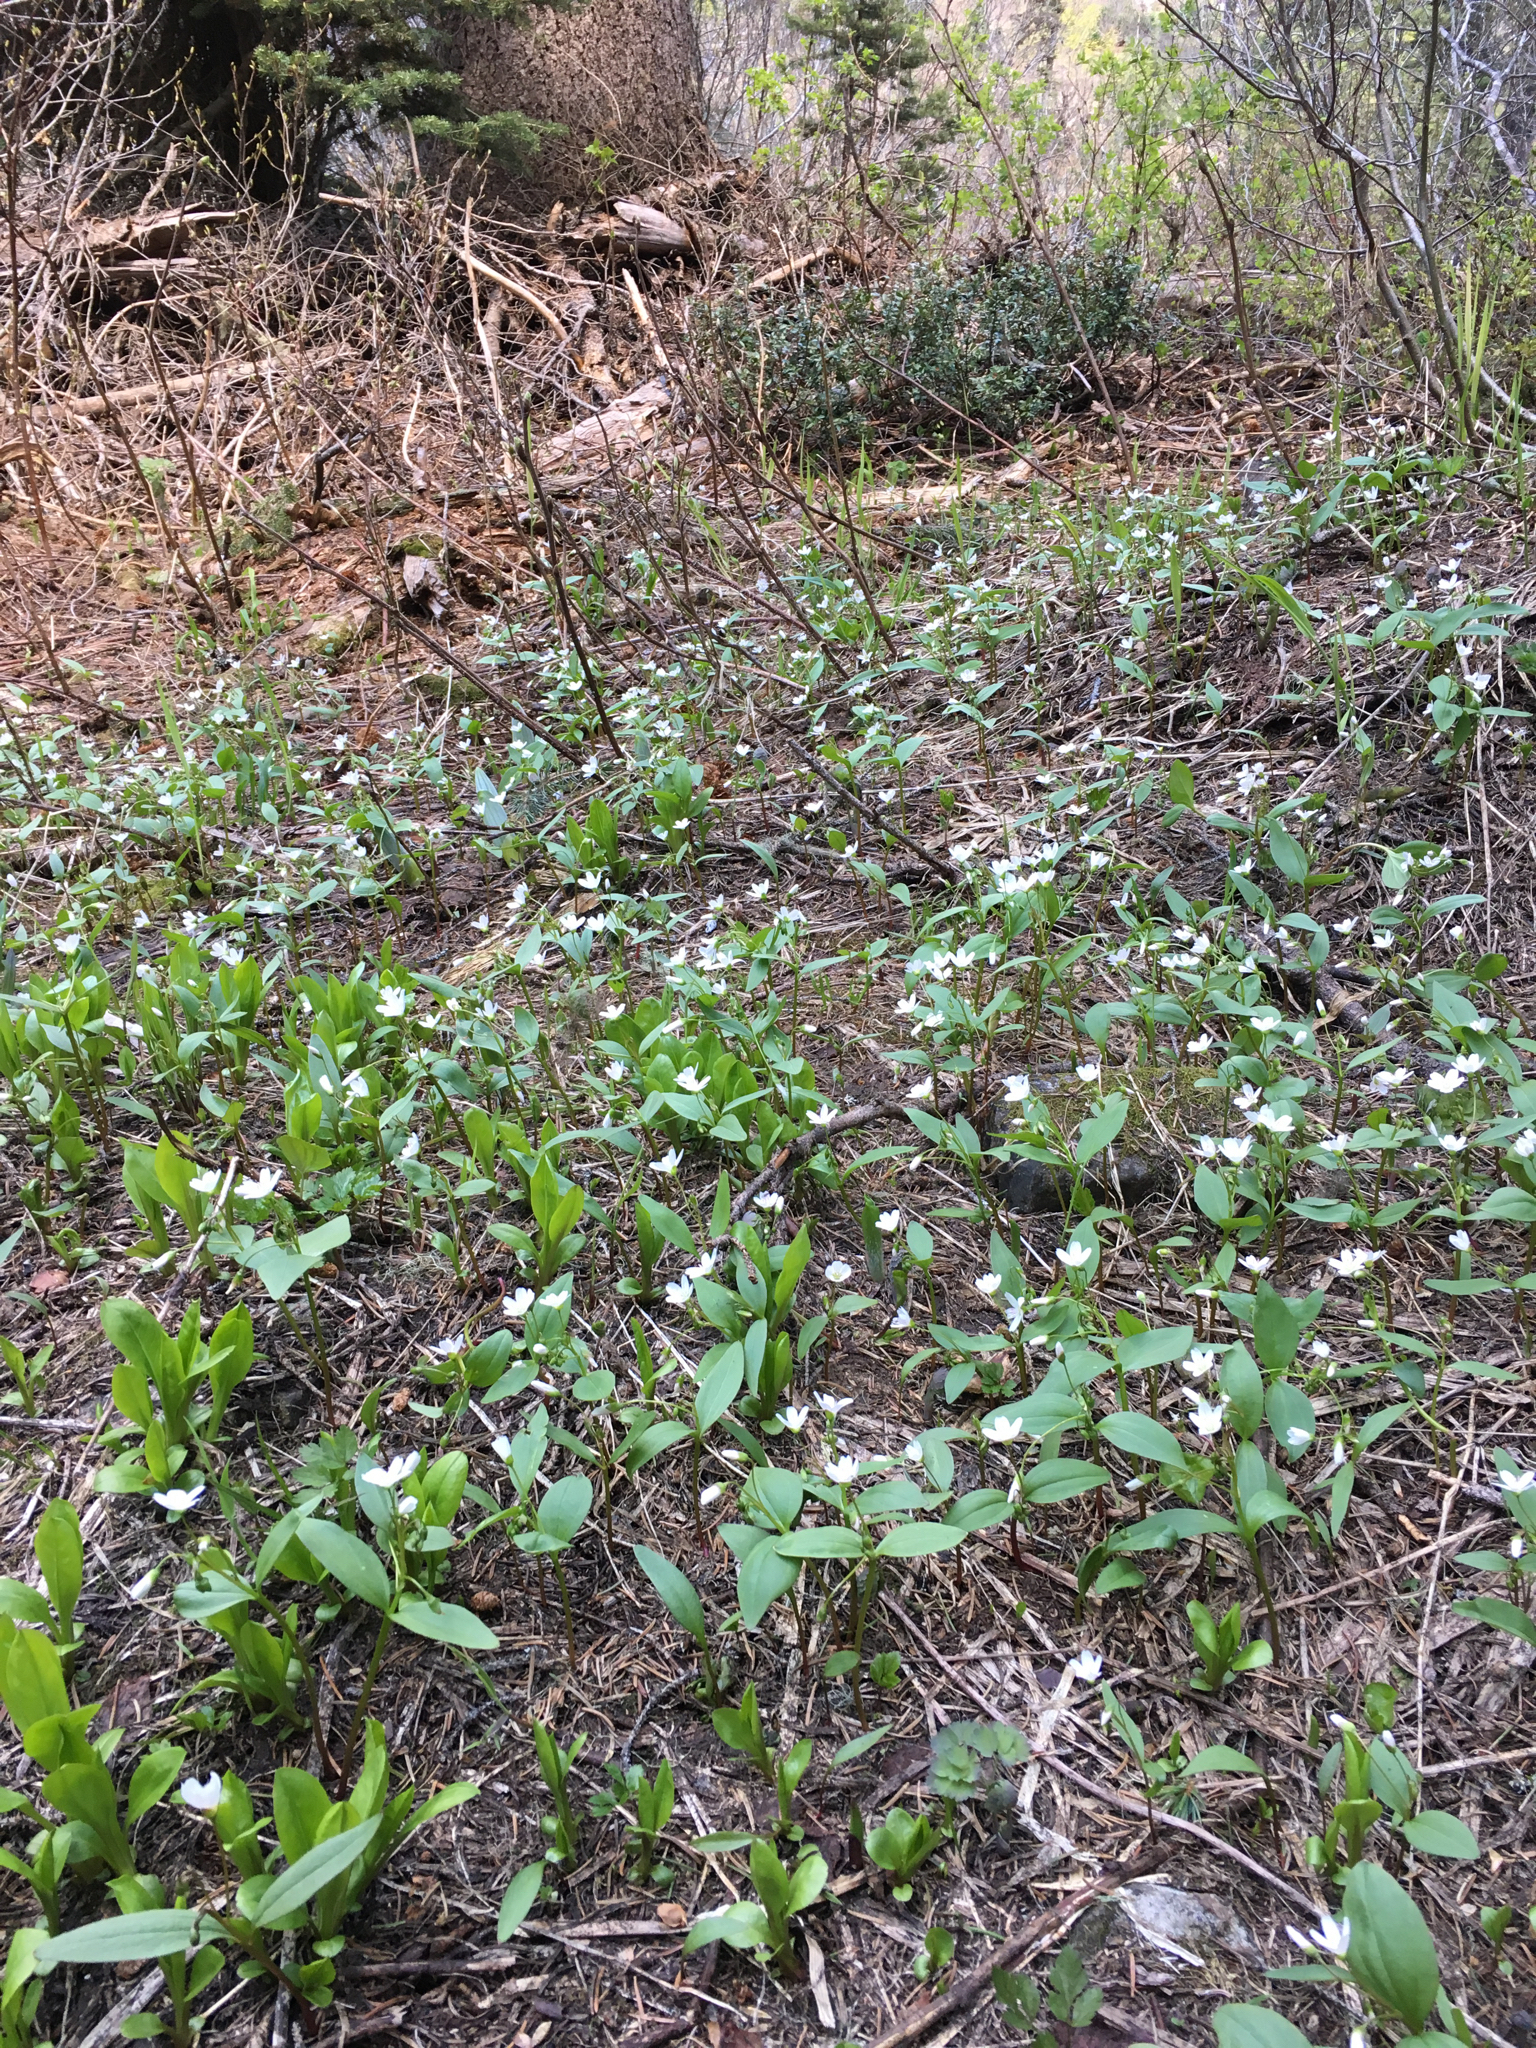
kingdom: Plantae
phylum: Tracheophyta
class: Magnoliopsida
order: Caryophyllales
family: Montiaceae
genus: Claytonia
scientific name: Claytonia lanceolata
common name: Western spring-beauty
